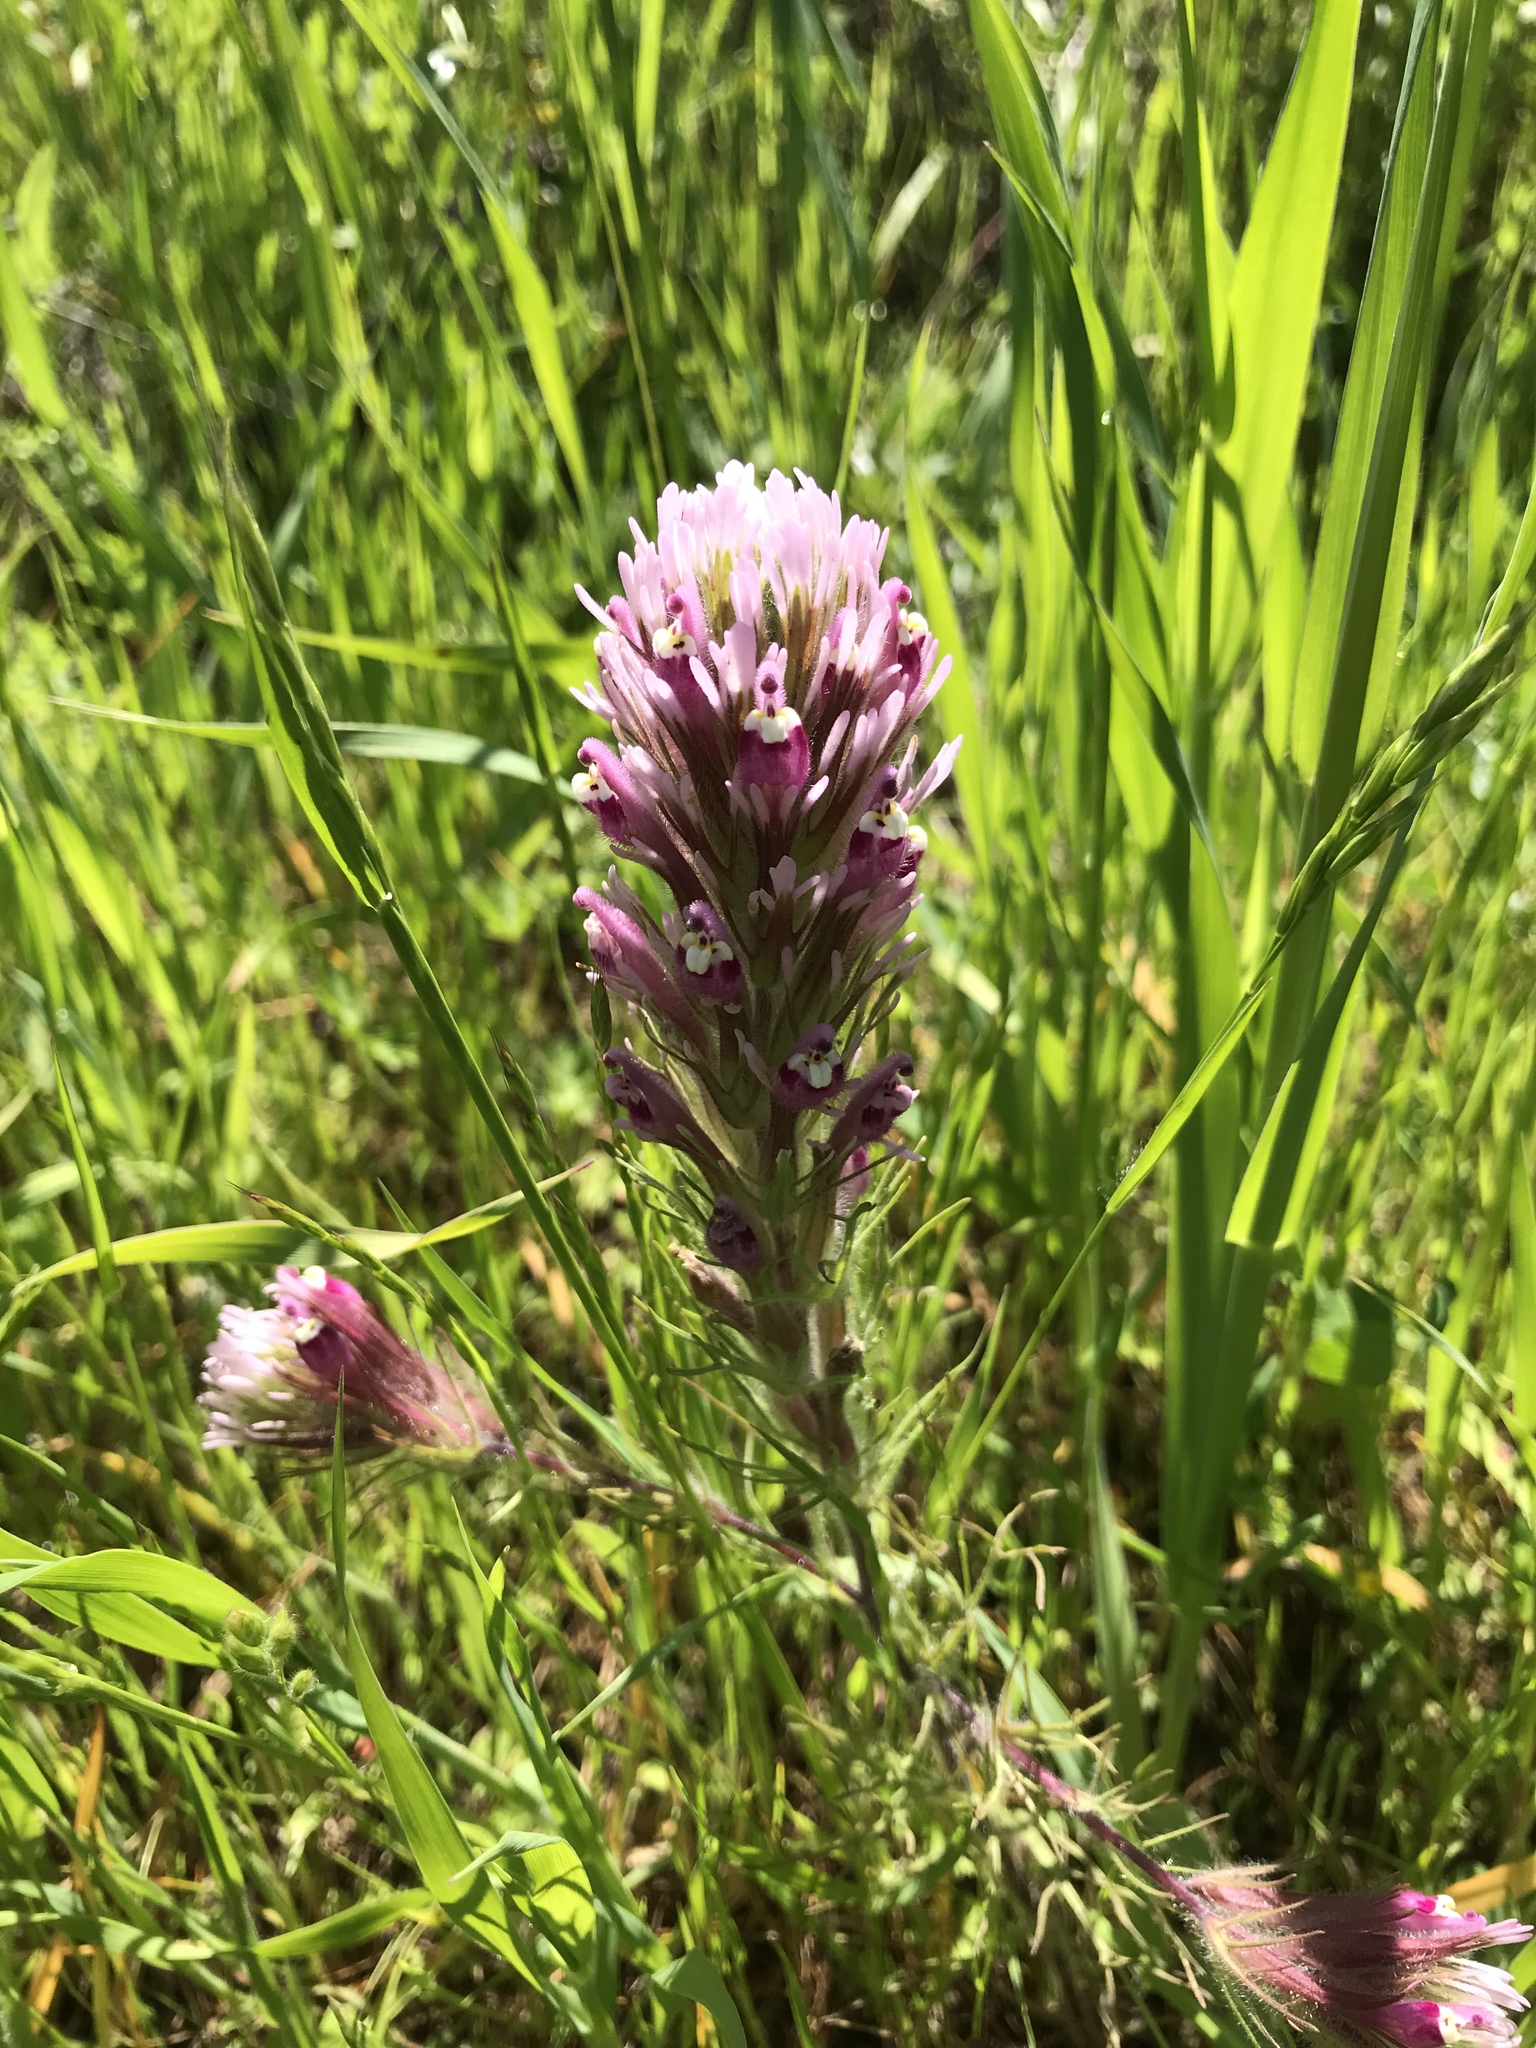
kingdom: Plantae
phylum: Tracheophyta
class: Magnoliopsida
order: Lamiales
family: Orobanchaceae
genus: Castilleja
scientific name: Castilleja exserta
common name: Purple owl-clover
